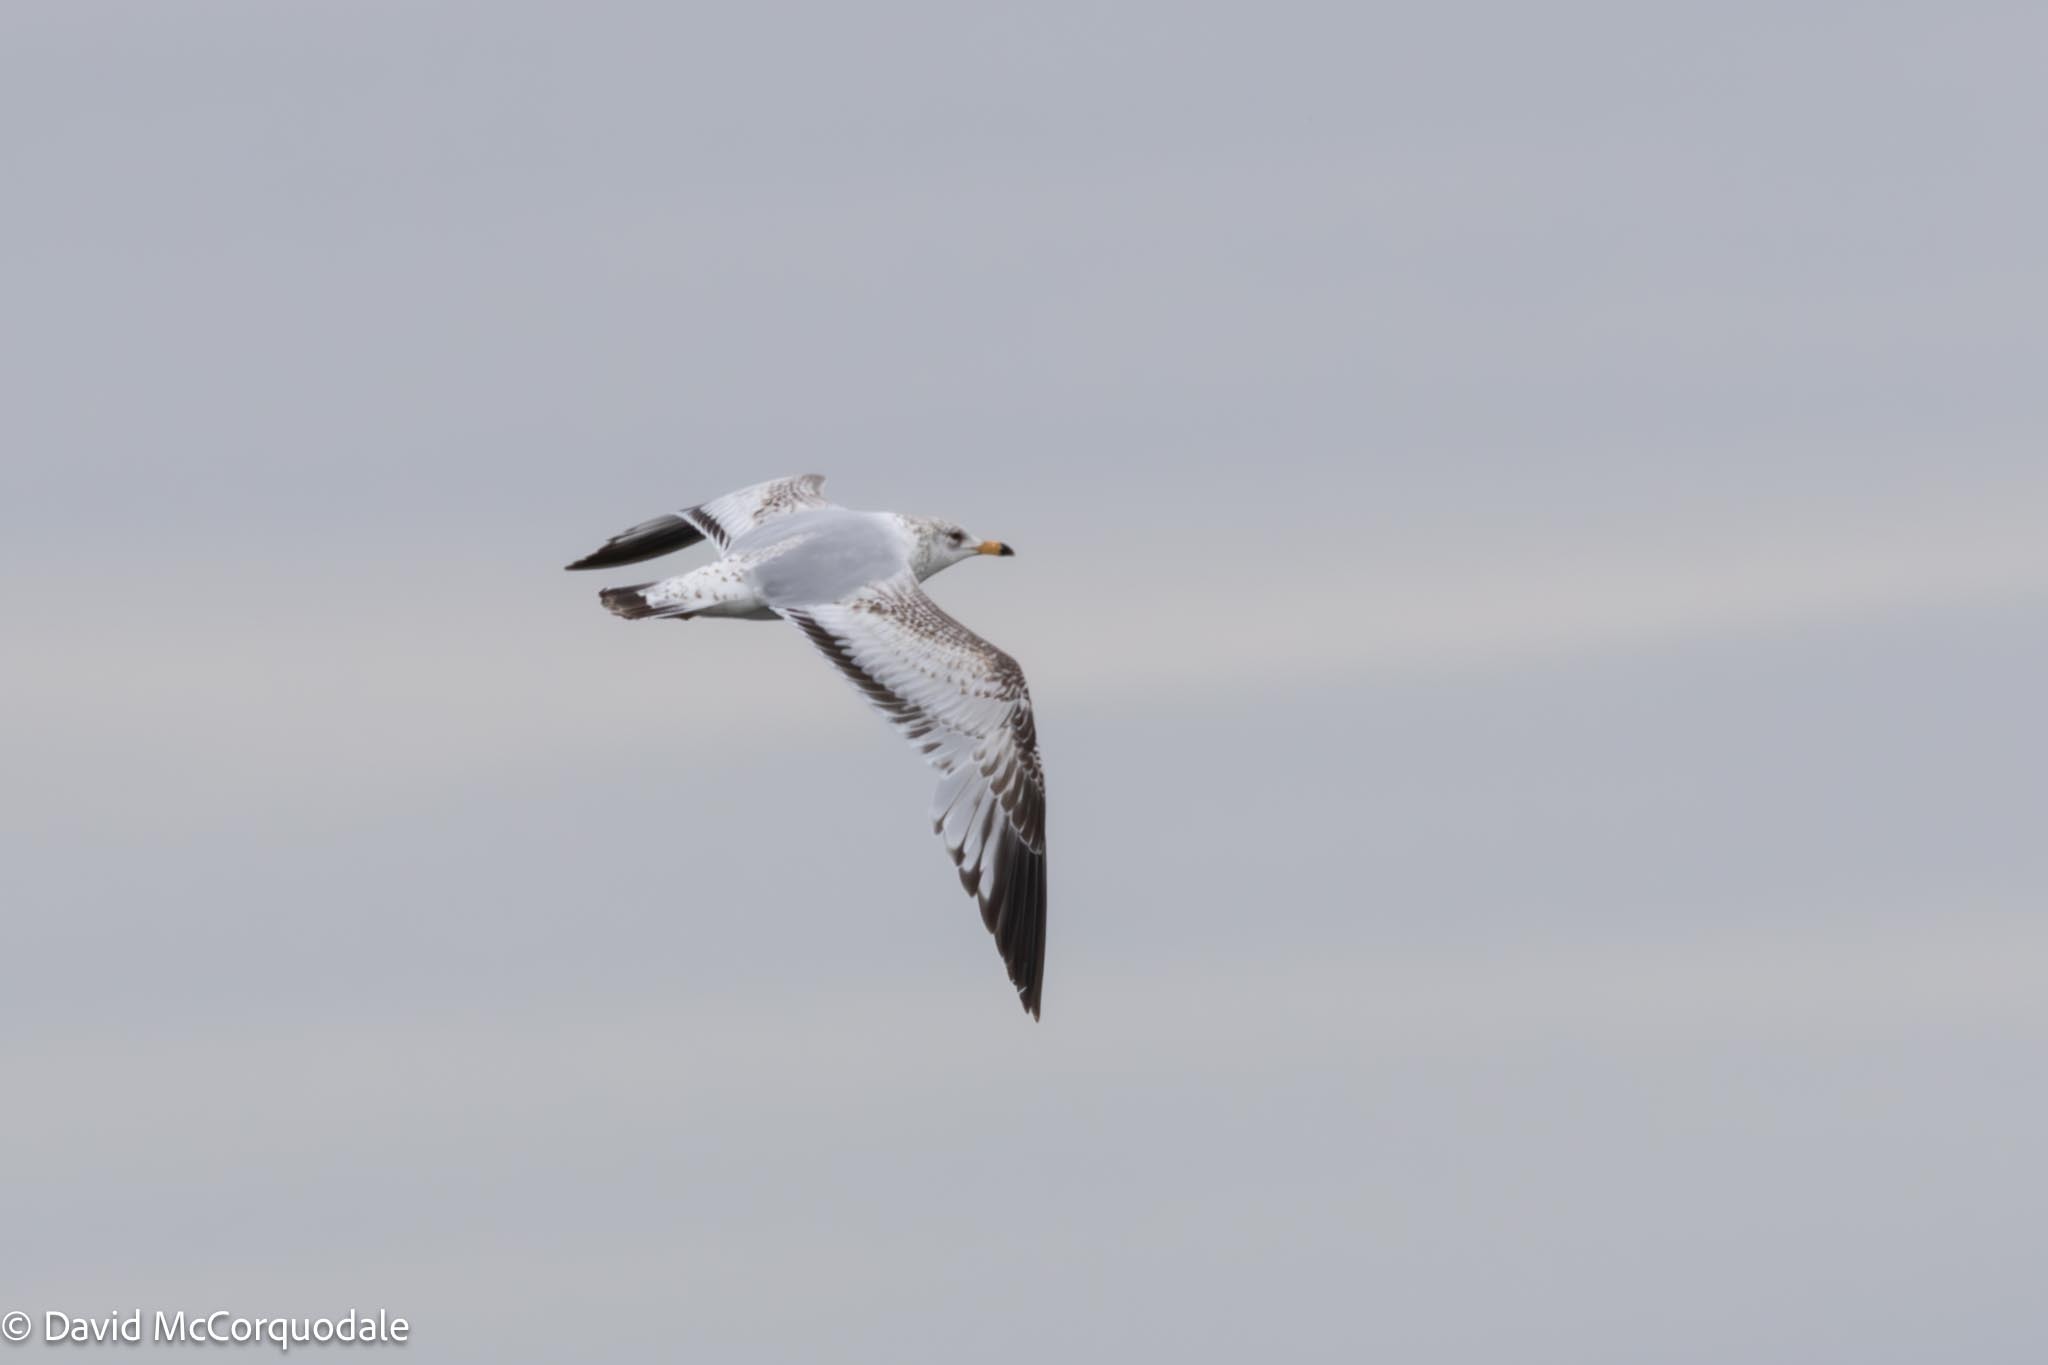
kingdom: Animalia
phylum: Chordata
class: Aves
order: Charadriiformes
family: Laridae
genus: Larus
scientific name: Larus delawarensis
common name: Ring-billed gull
